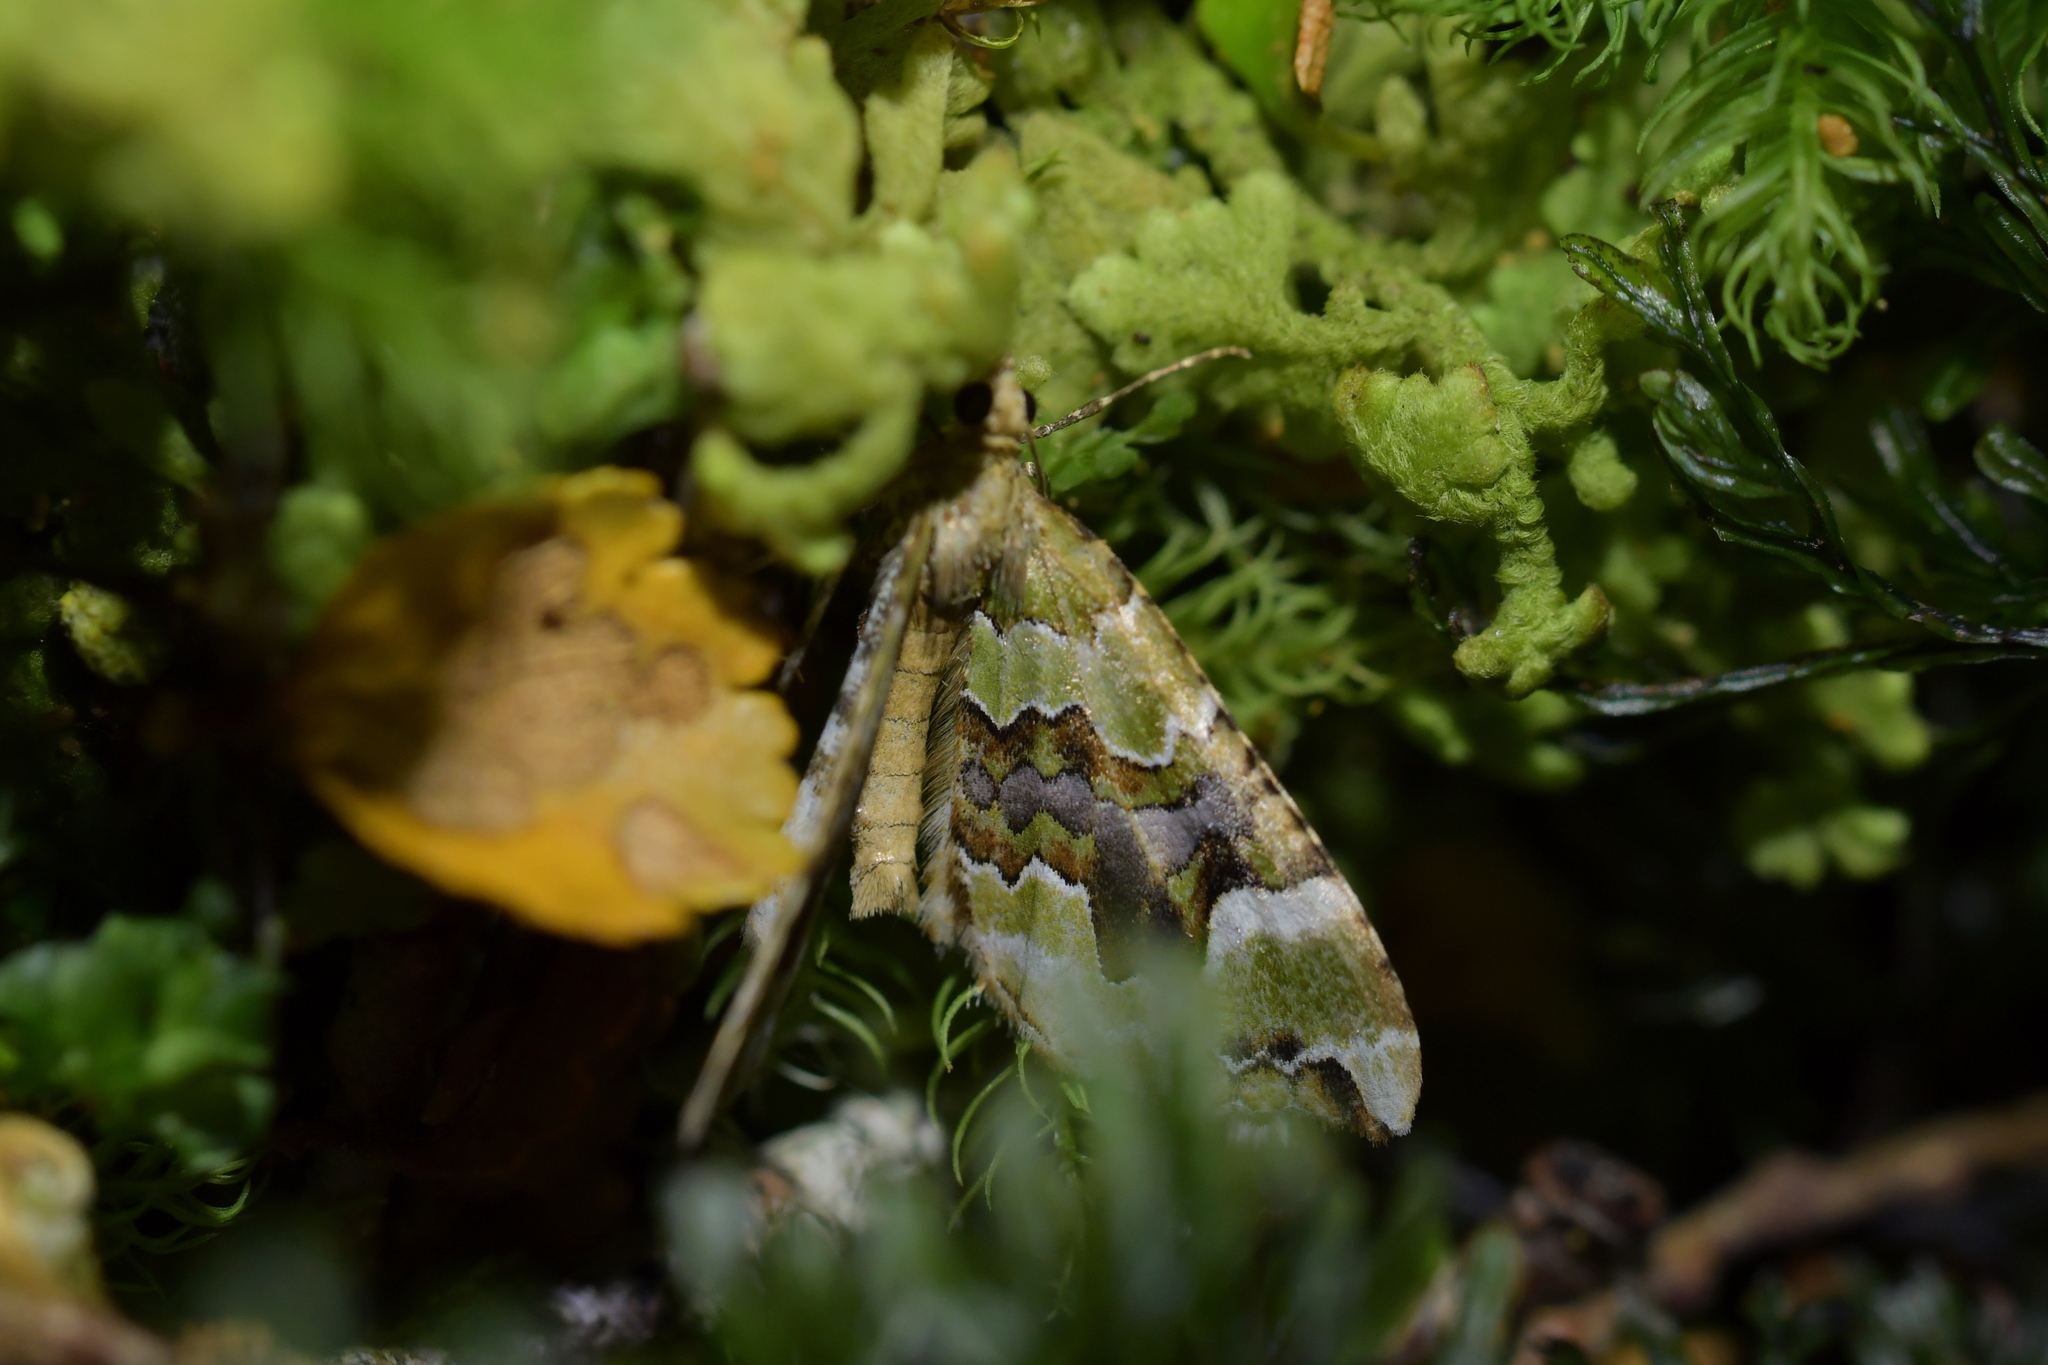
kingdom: Animalia
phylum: Arthropoda
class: Insecta
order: Lepidoptera
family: Geometridae
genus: Hydriomena
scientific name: Hydriomena purpurifera
